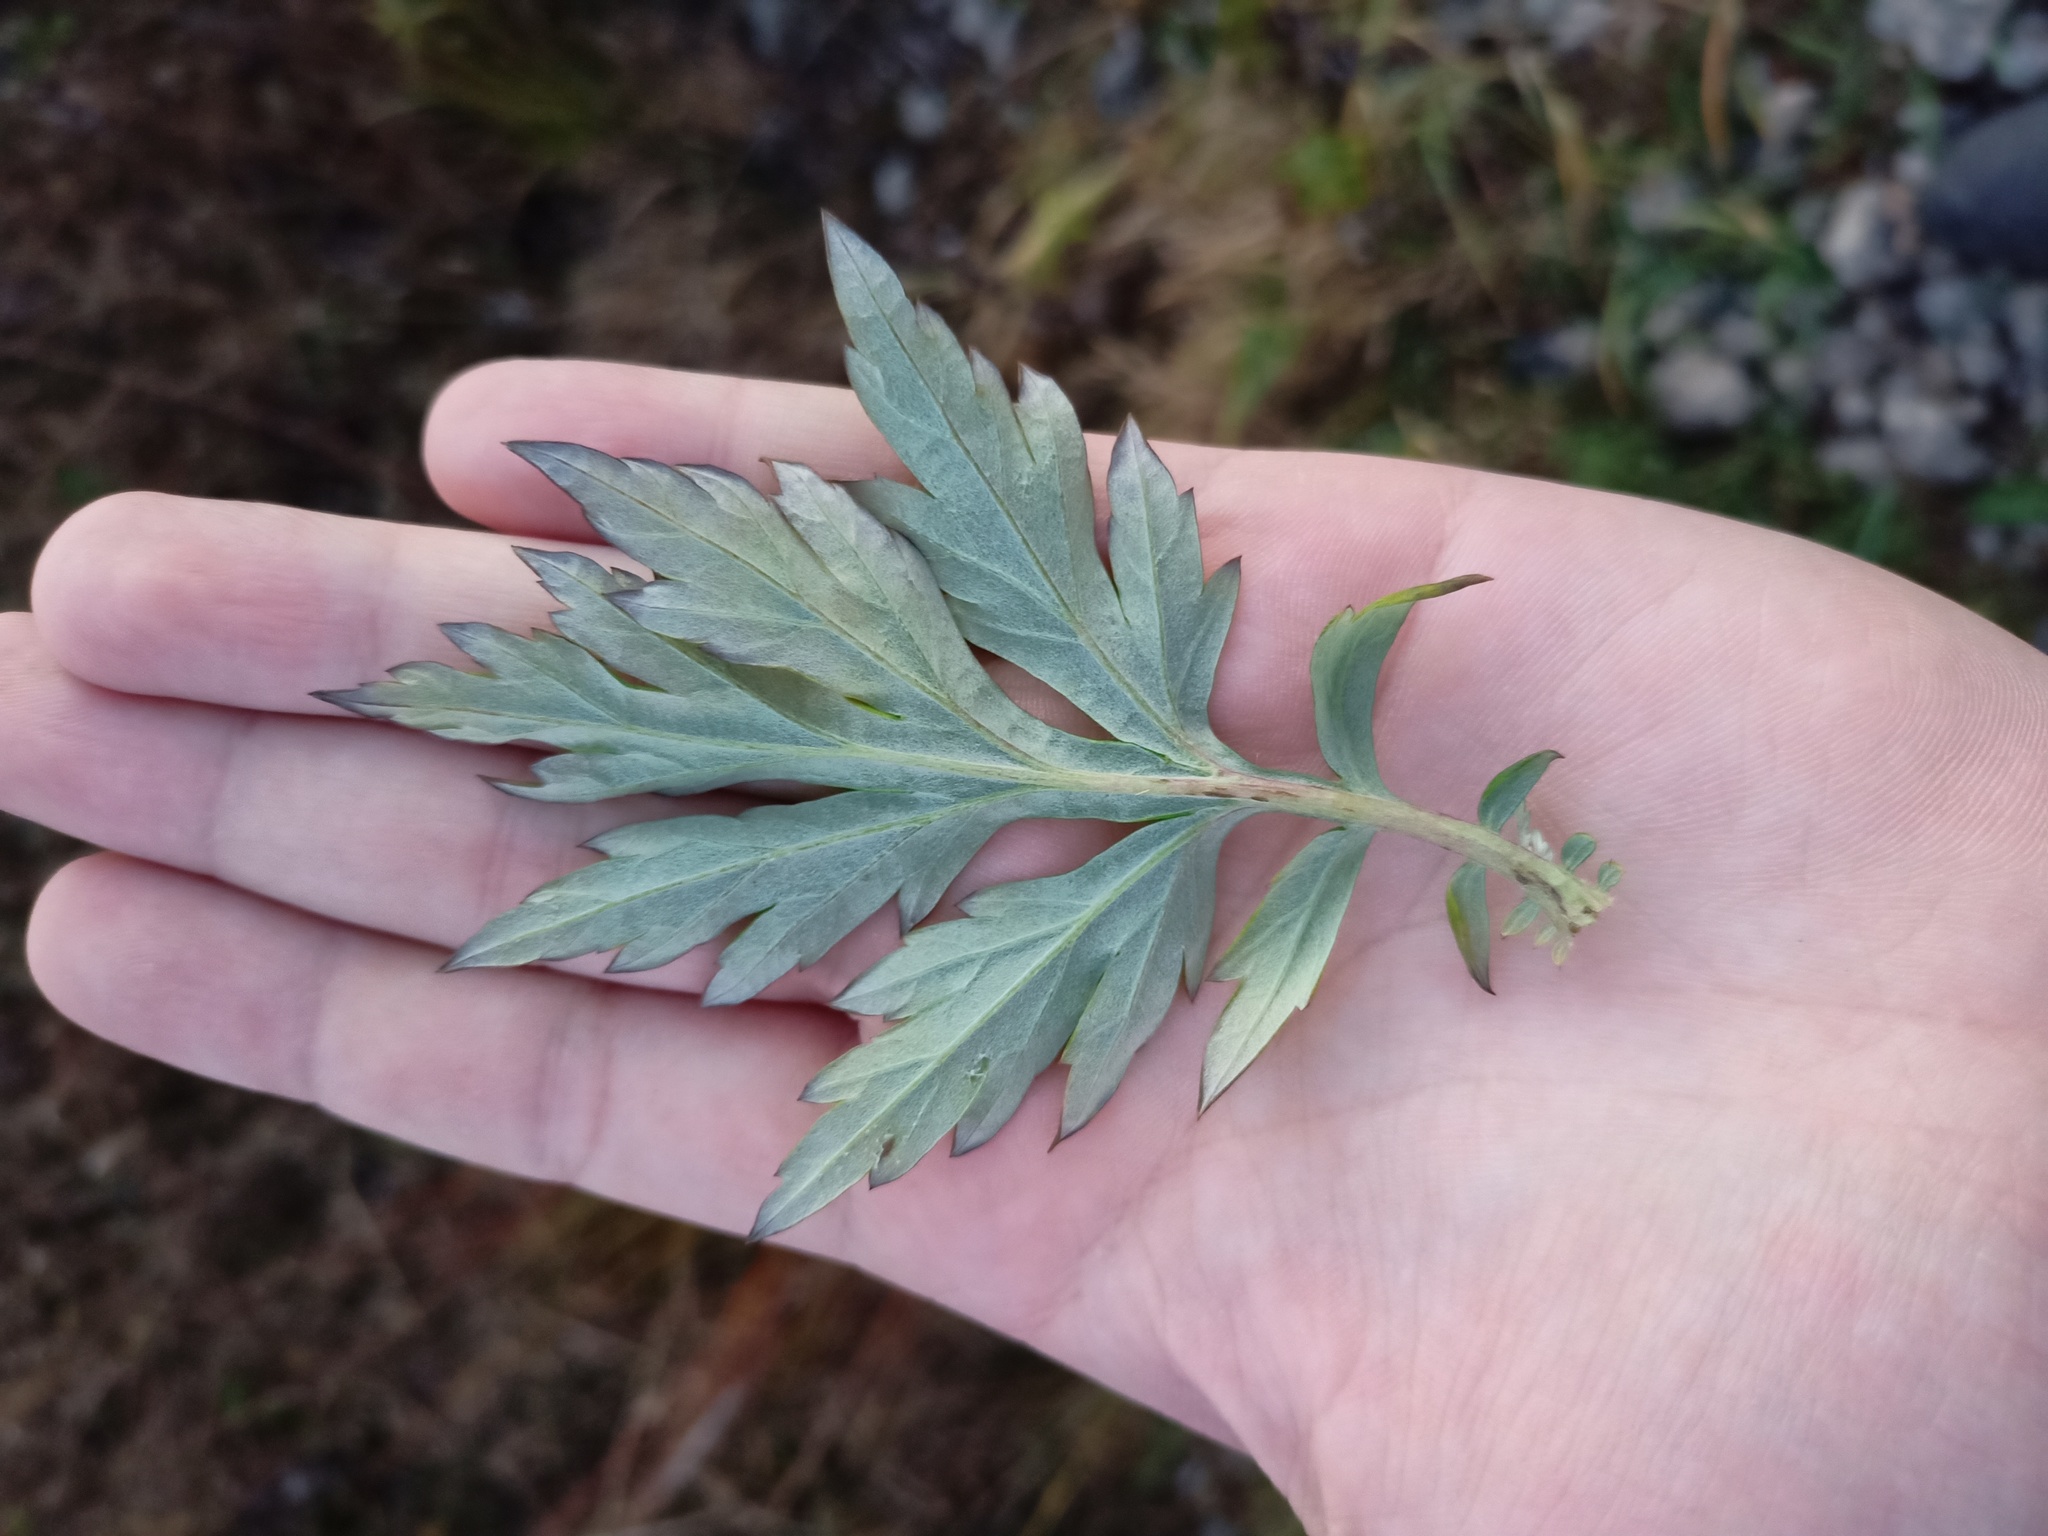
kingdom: Plantae
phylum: Tracheophyta
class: Magnoliopsida
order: Asterales
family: Asteraceae
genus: Artemisia
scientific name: Artemisia vulgaris
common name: Mugwort
